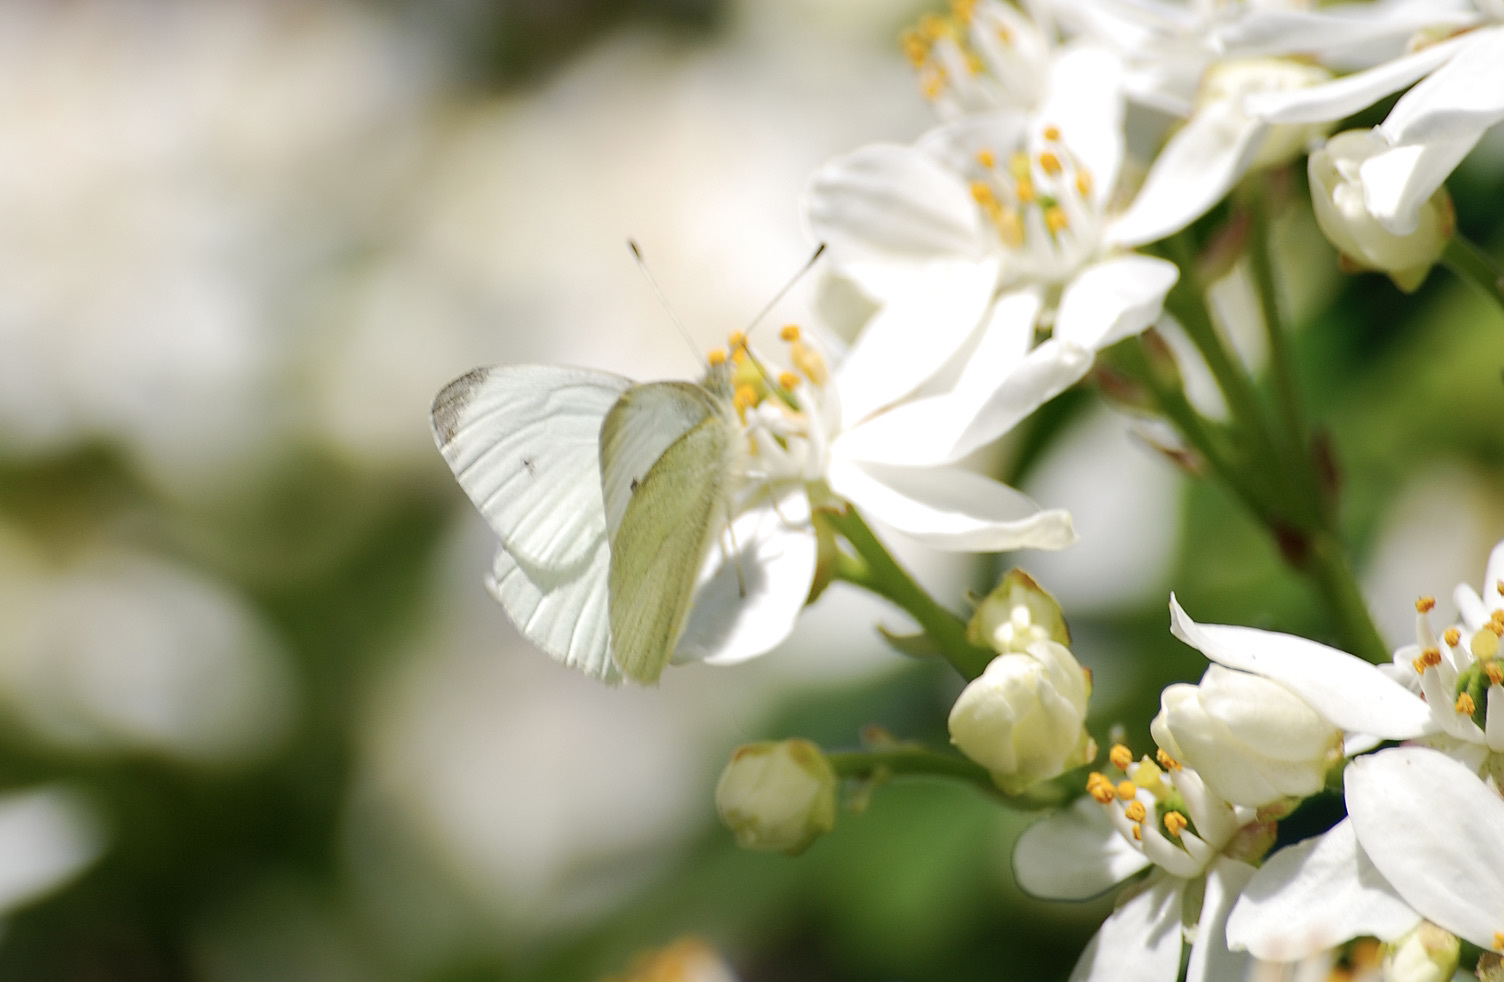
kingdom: Animalia
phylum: Arthropoda
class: Insecta
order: Lepidoptera
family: Pieridae
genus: Pieris
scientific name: Pieris rapae
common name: Small white
